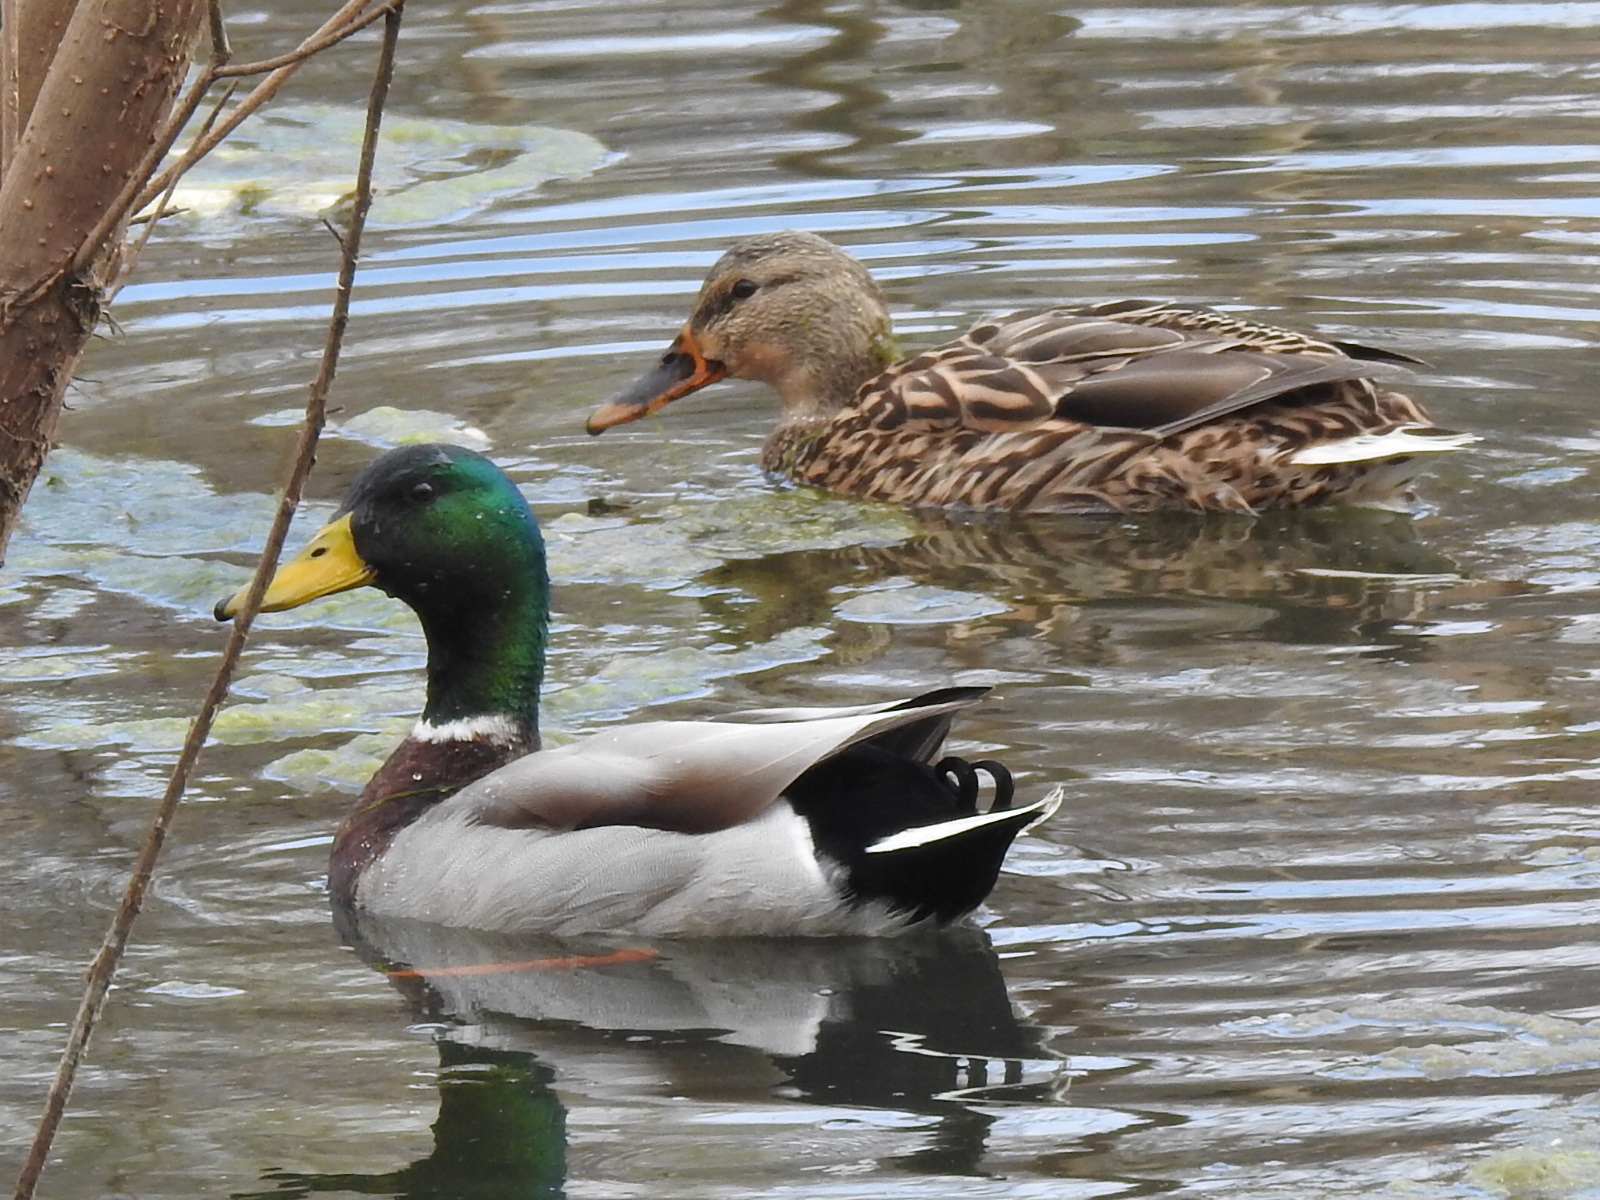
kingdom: Animalia
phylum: Chordata
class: Aves
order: Anseriformes
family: Anatidae
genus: Anas
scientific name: Anas platyrhynchos
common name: Mallard
